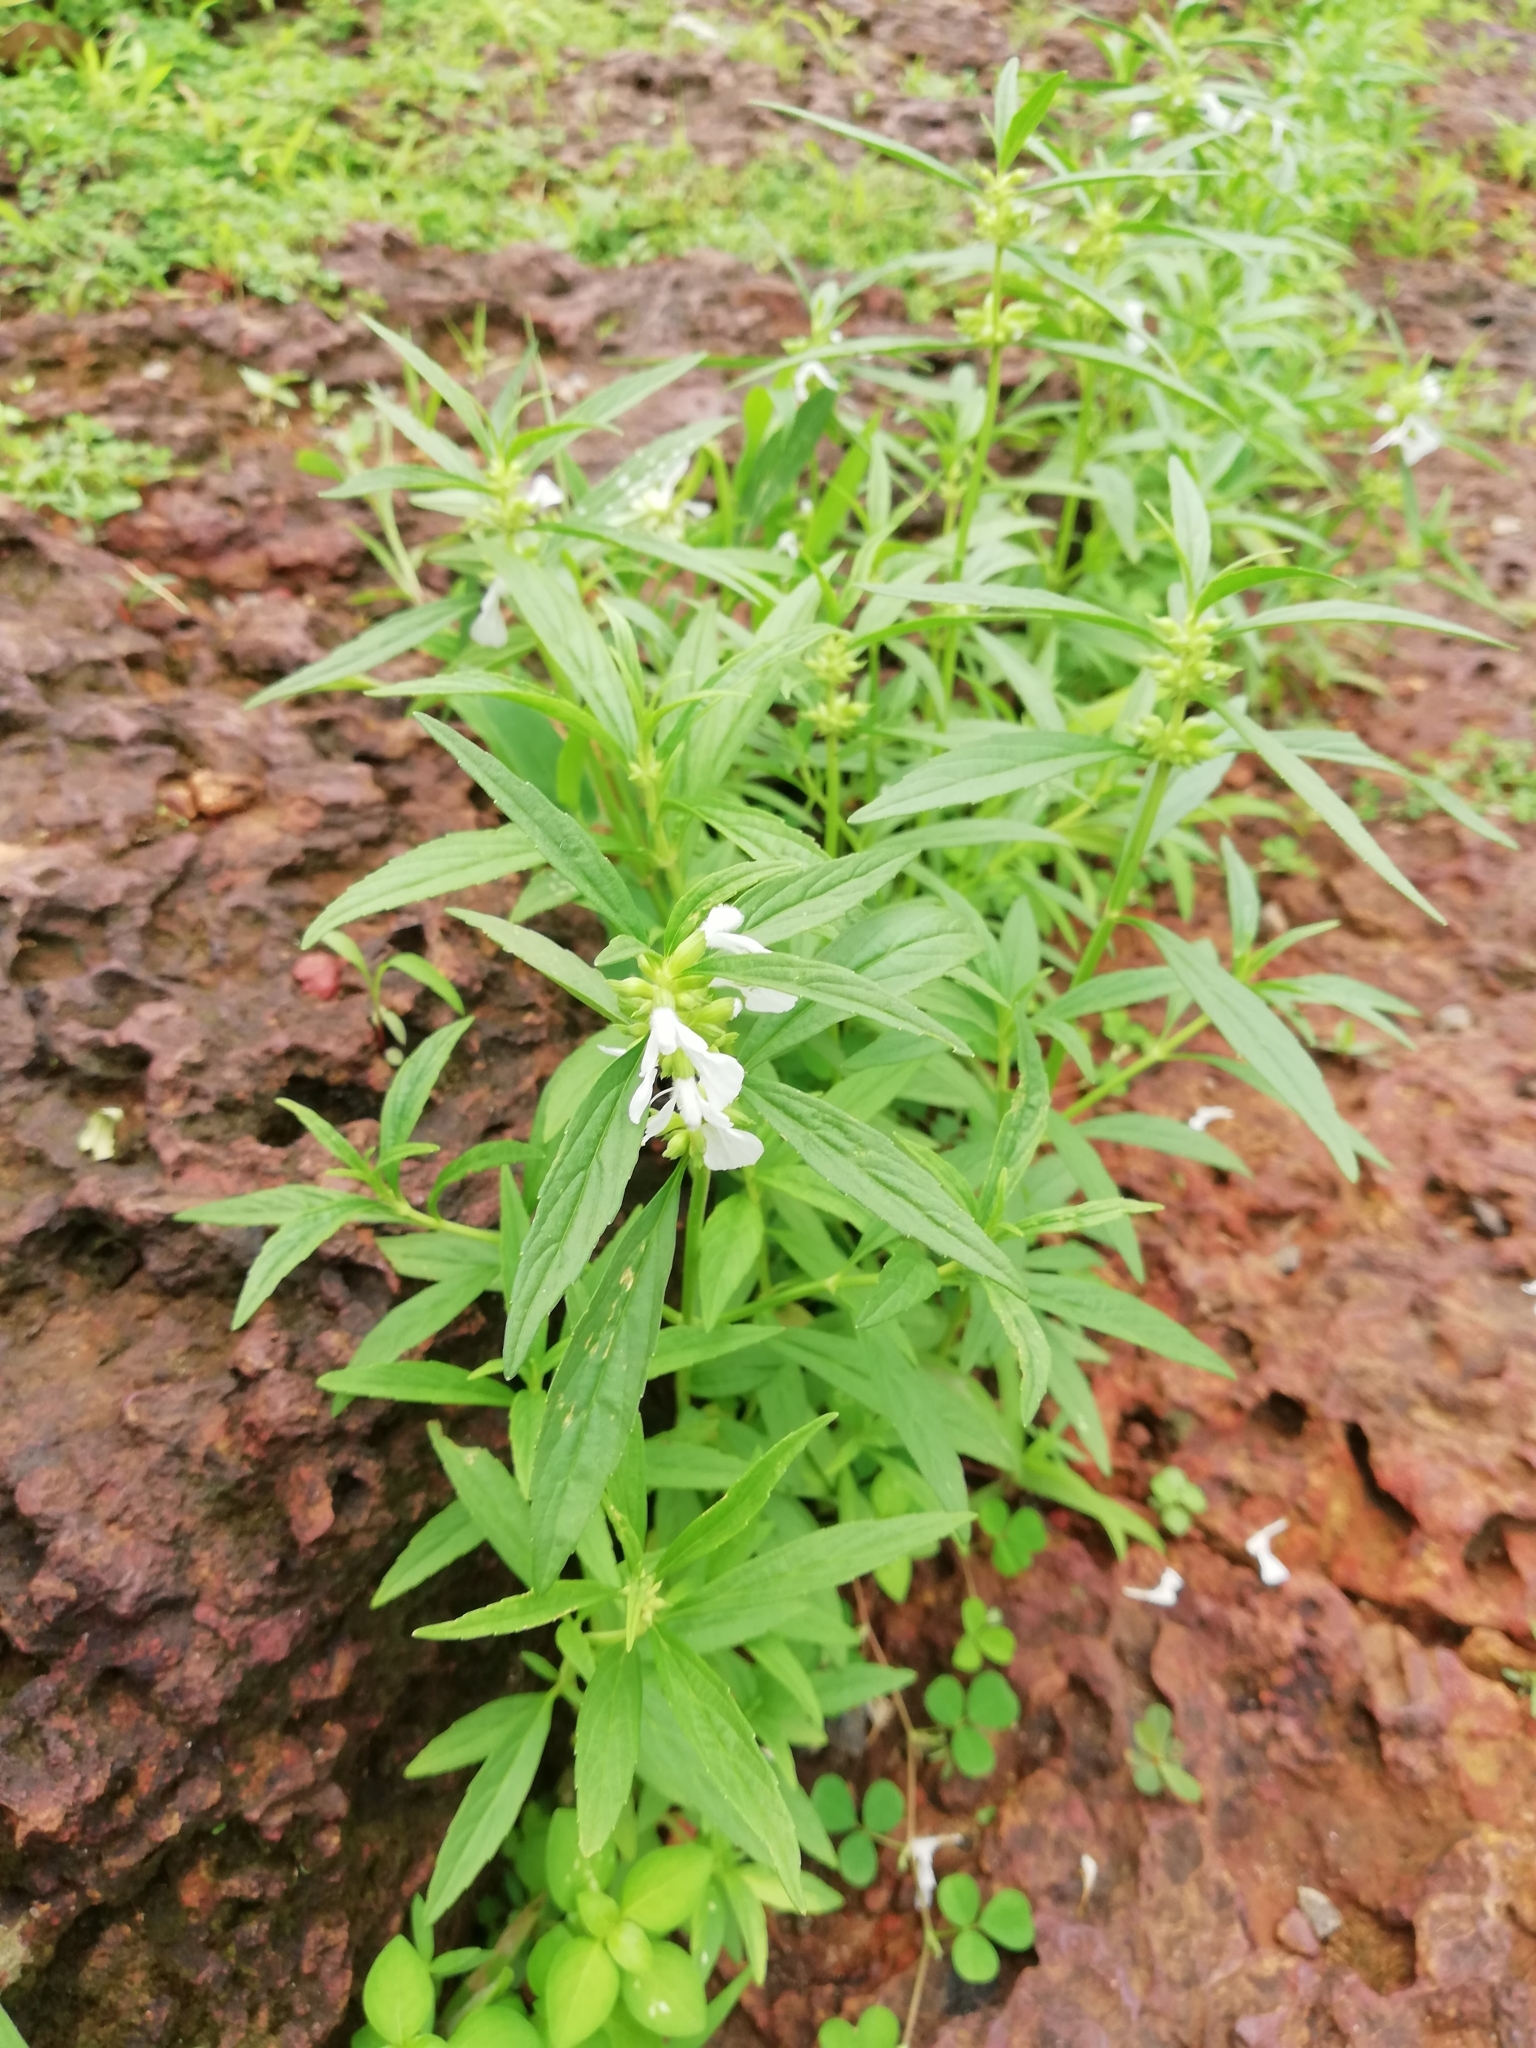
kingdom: Plantae
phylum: Tracheophyta
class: Magnoliopsida
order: Lamiales
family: Lamiaceae
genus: Leucas
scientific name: Leucas aspera
